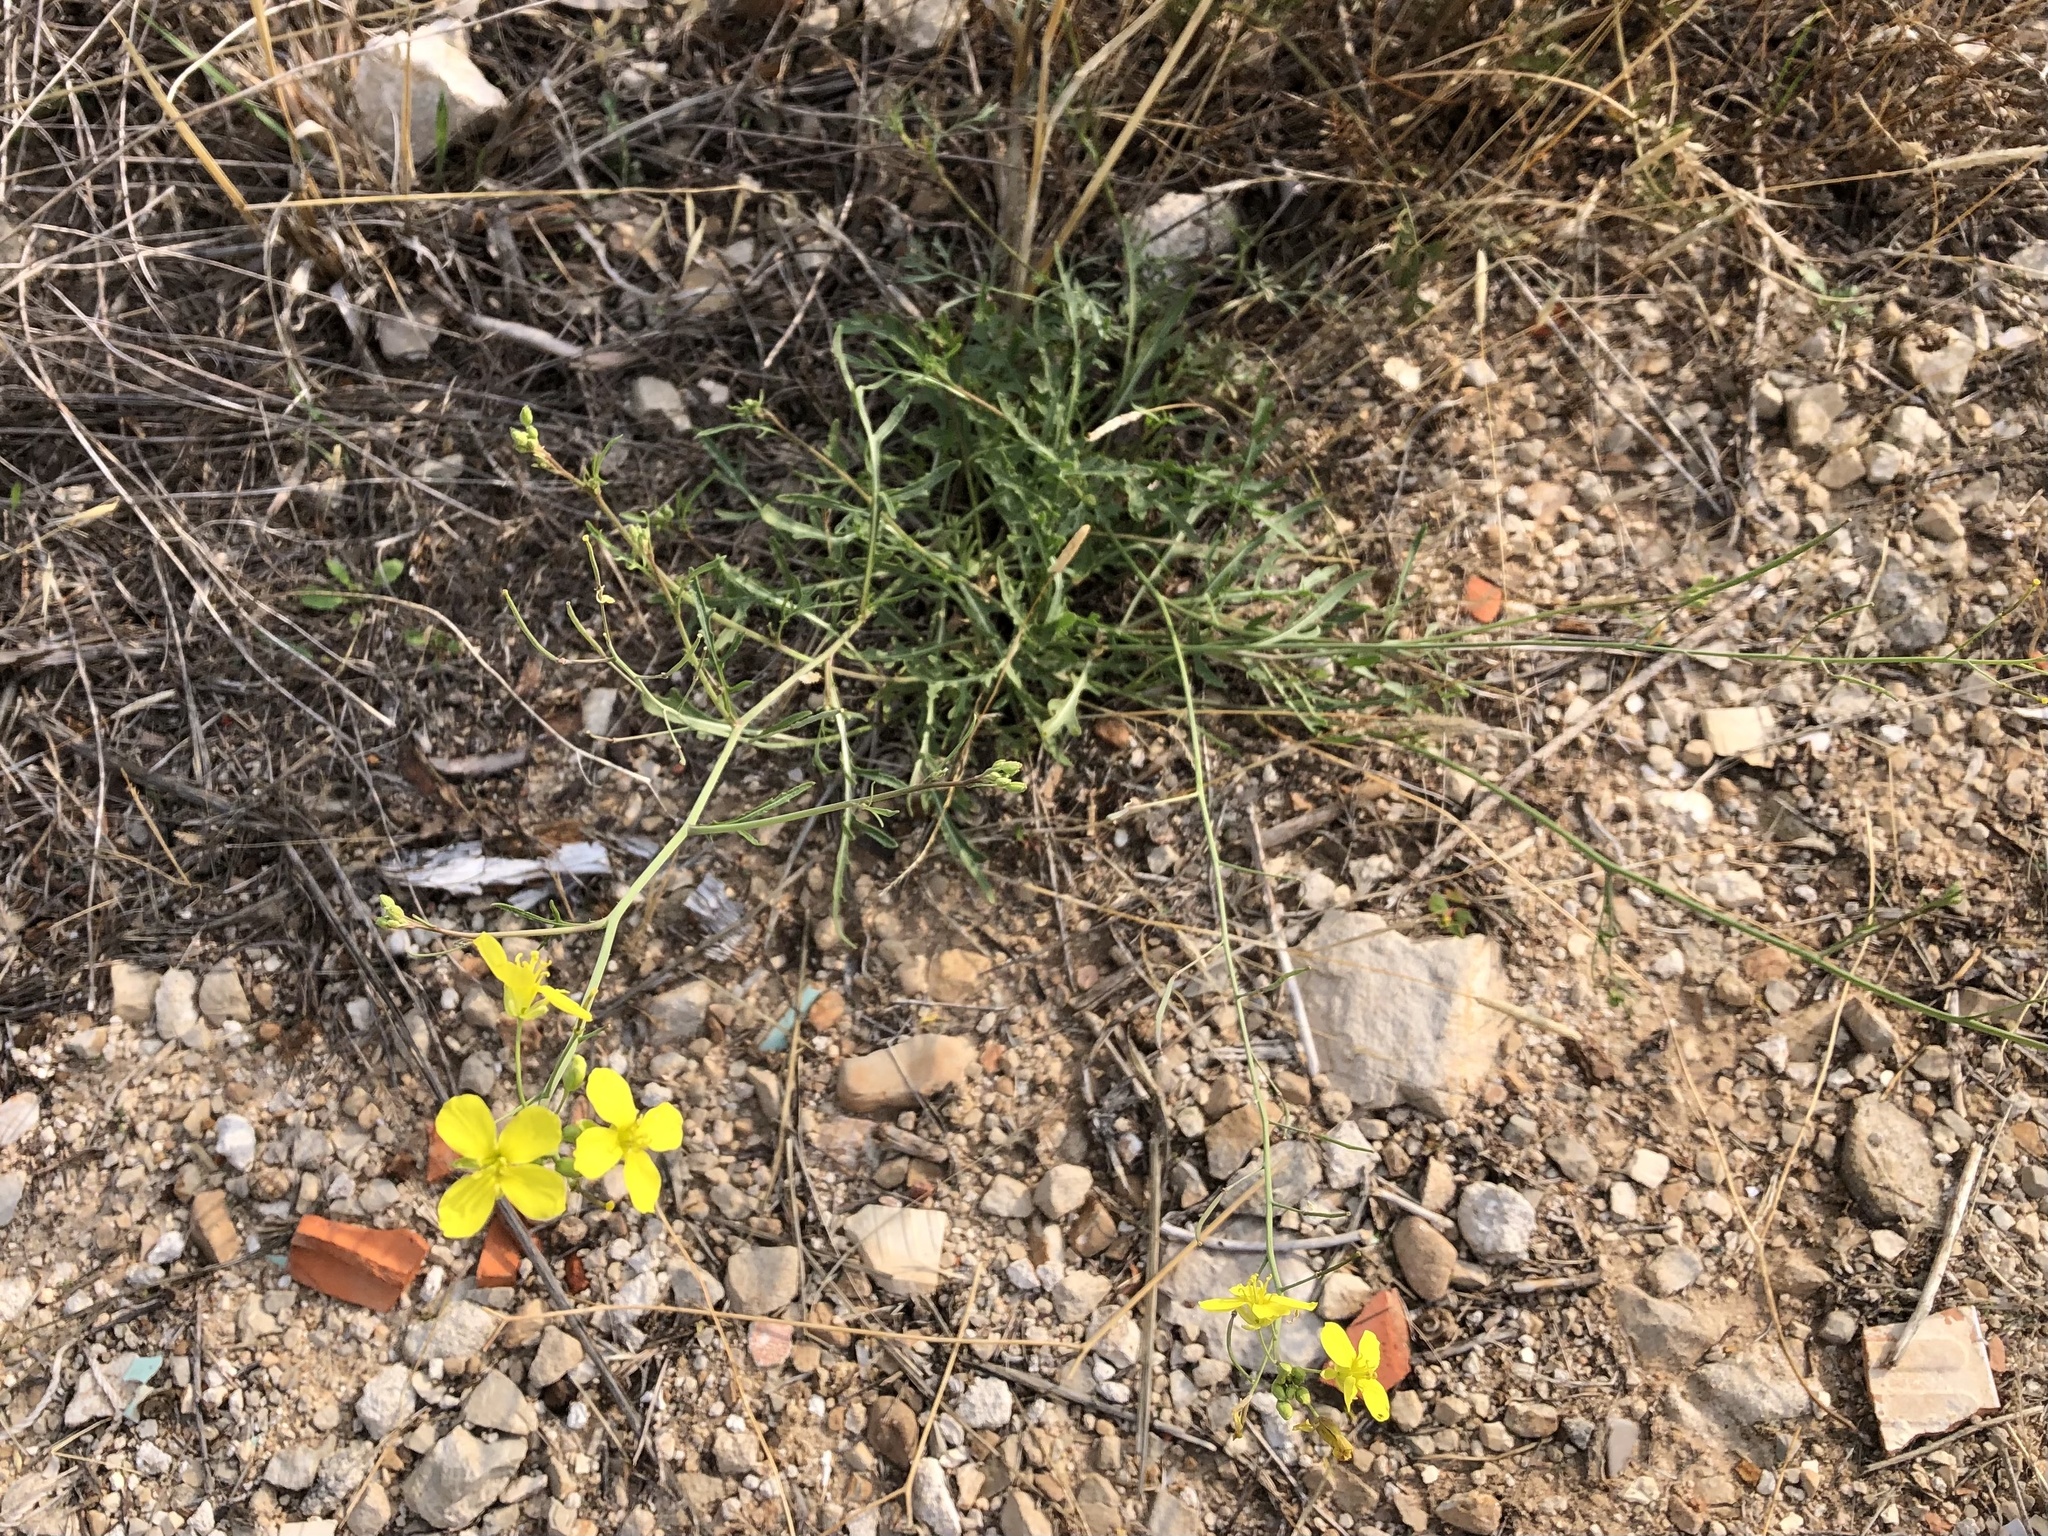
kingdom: Plantae
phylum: Tracheophyta
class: Magnoliopsida
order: Brassicales
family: Brassicaceae
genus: Diplotaxis
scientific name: Diplotaxis tenuifolia
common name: Perennial wall-rocket
